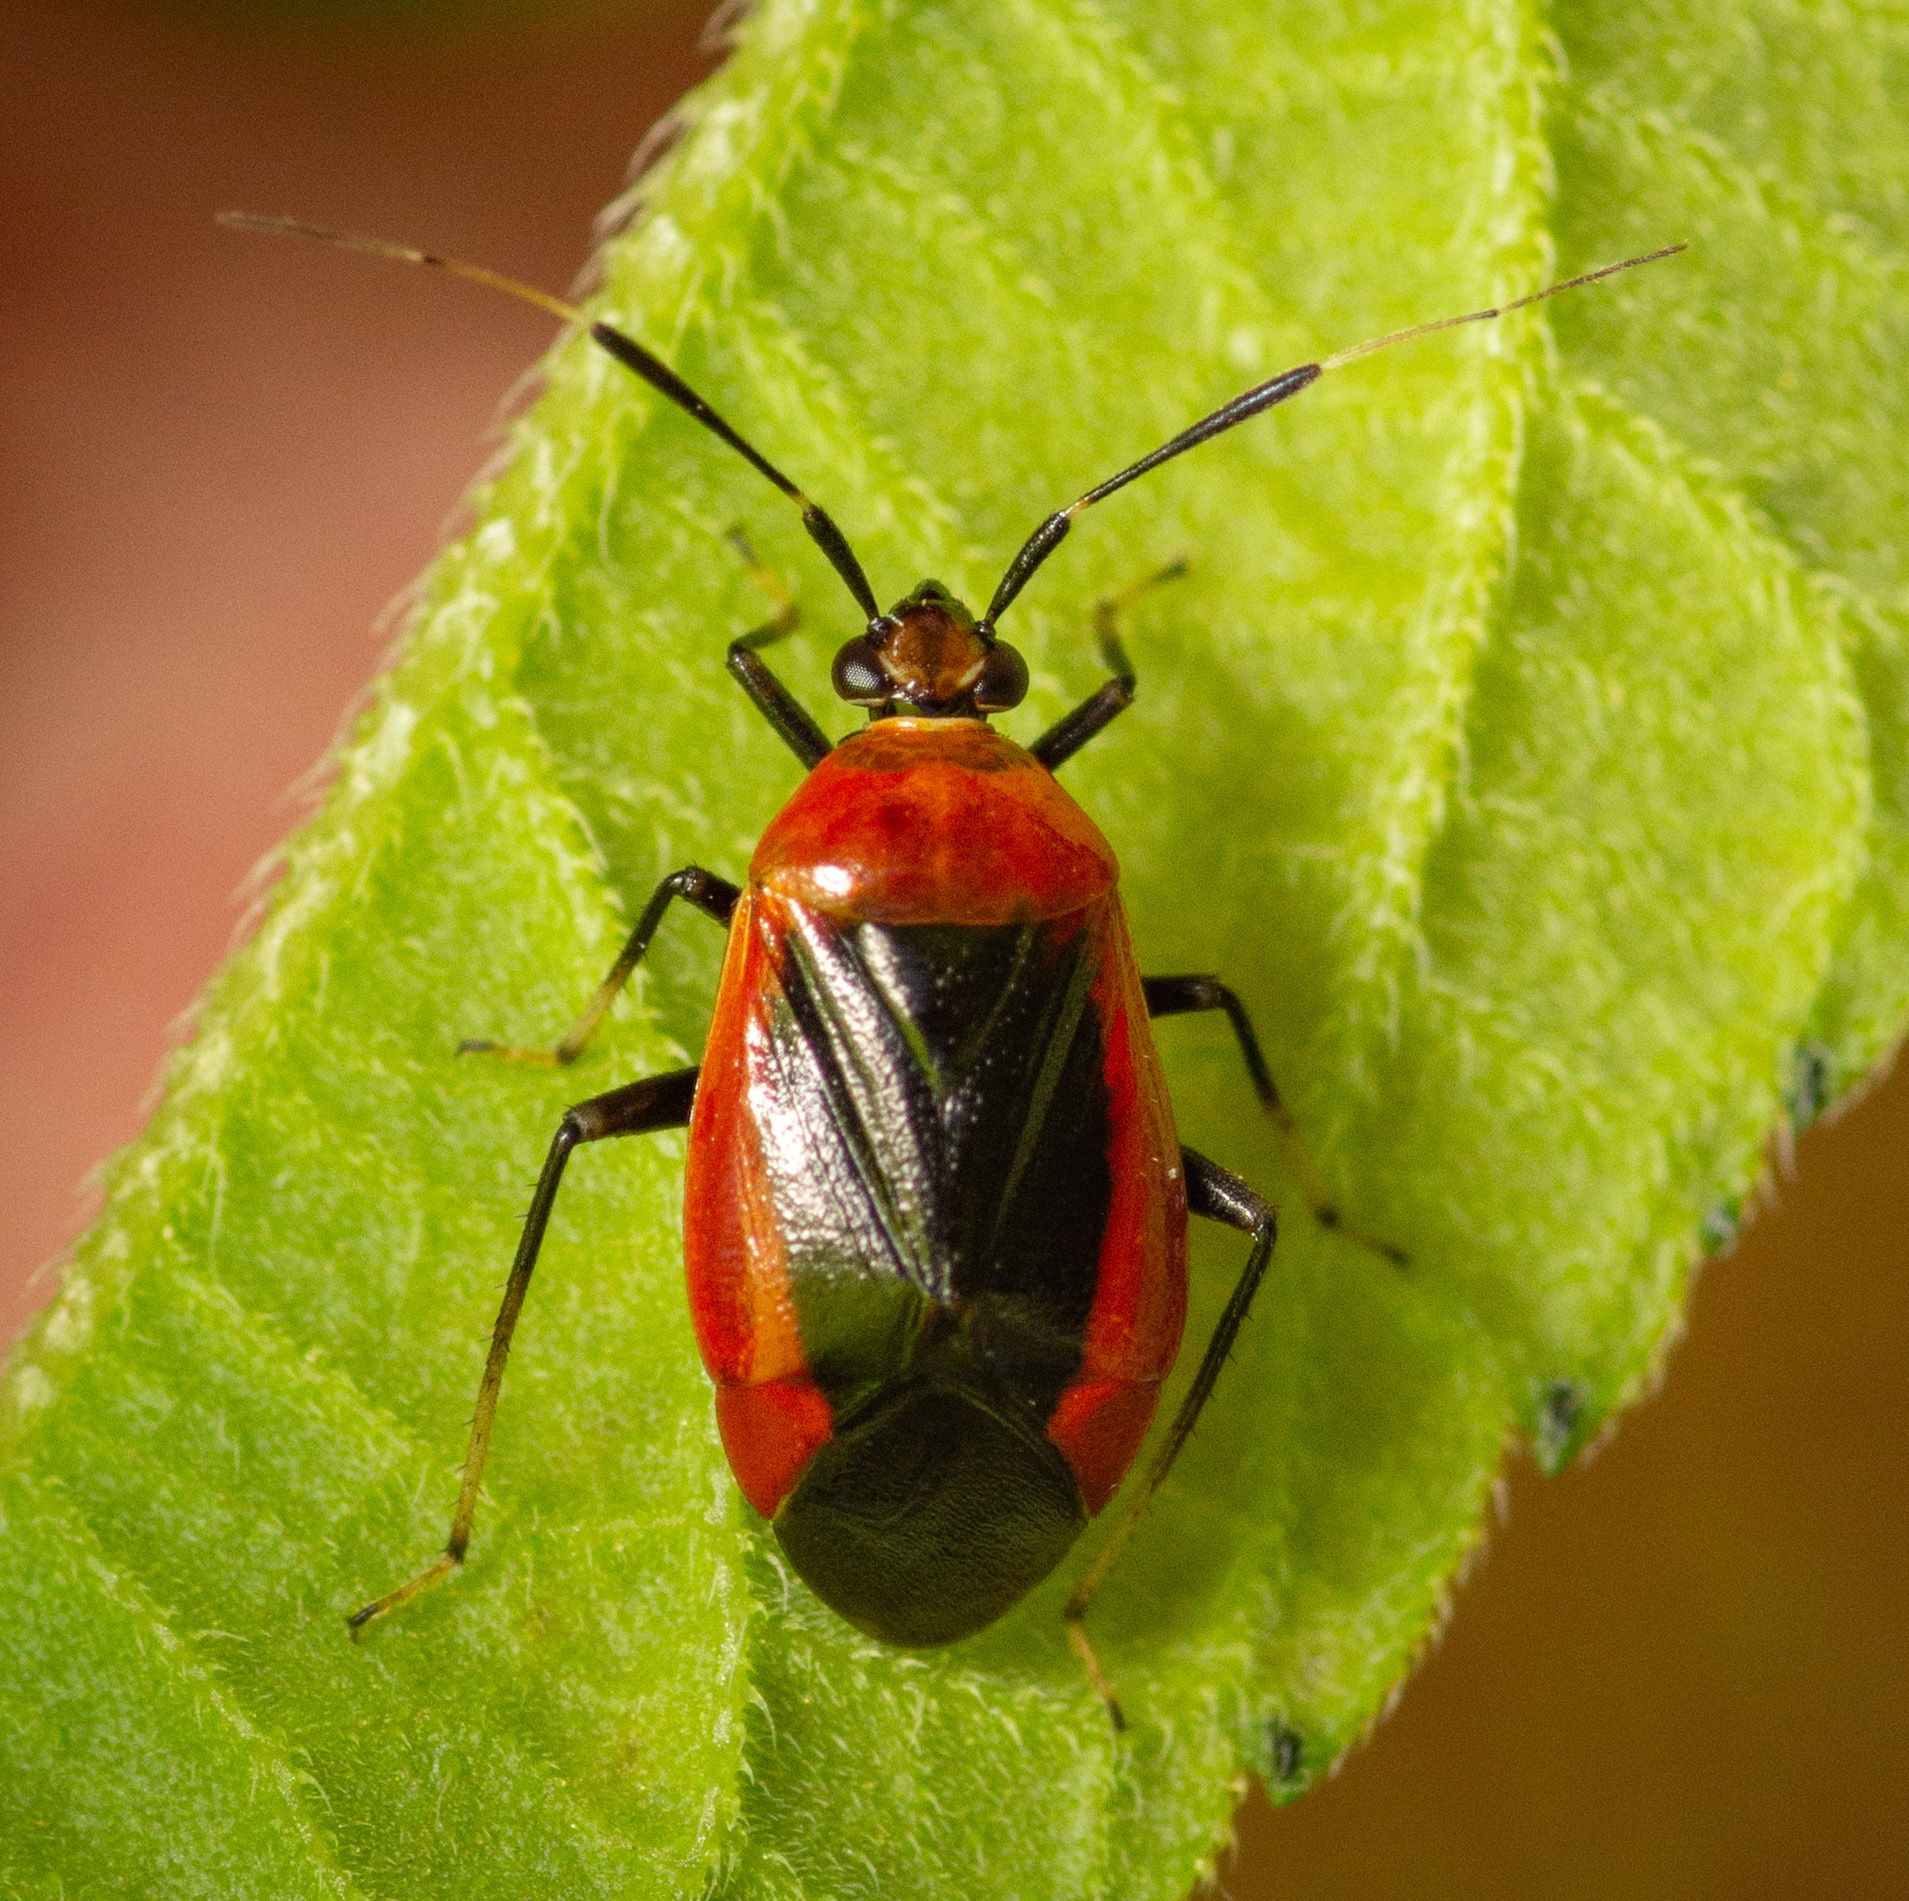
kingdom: Animalia
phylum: Arthropoda
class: Insecta
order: Hemiptera
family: Miridae
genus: Metriorrhynchomiris
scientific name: Metriorrhynchomiris dislocatus
